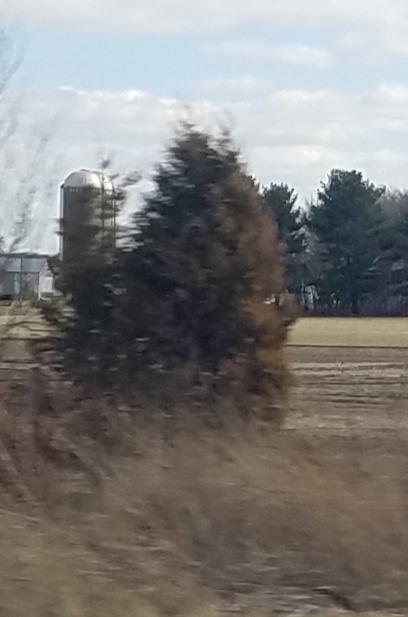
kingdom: Plantae
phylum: Tracheophyta
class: Pinopsida
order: Pinales
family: Cupressaceae
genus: Juniperus
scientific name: Juniperus virginiana
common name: Red juniper
